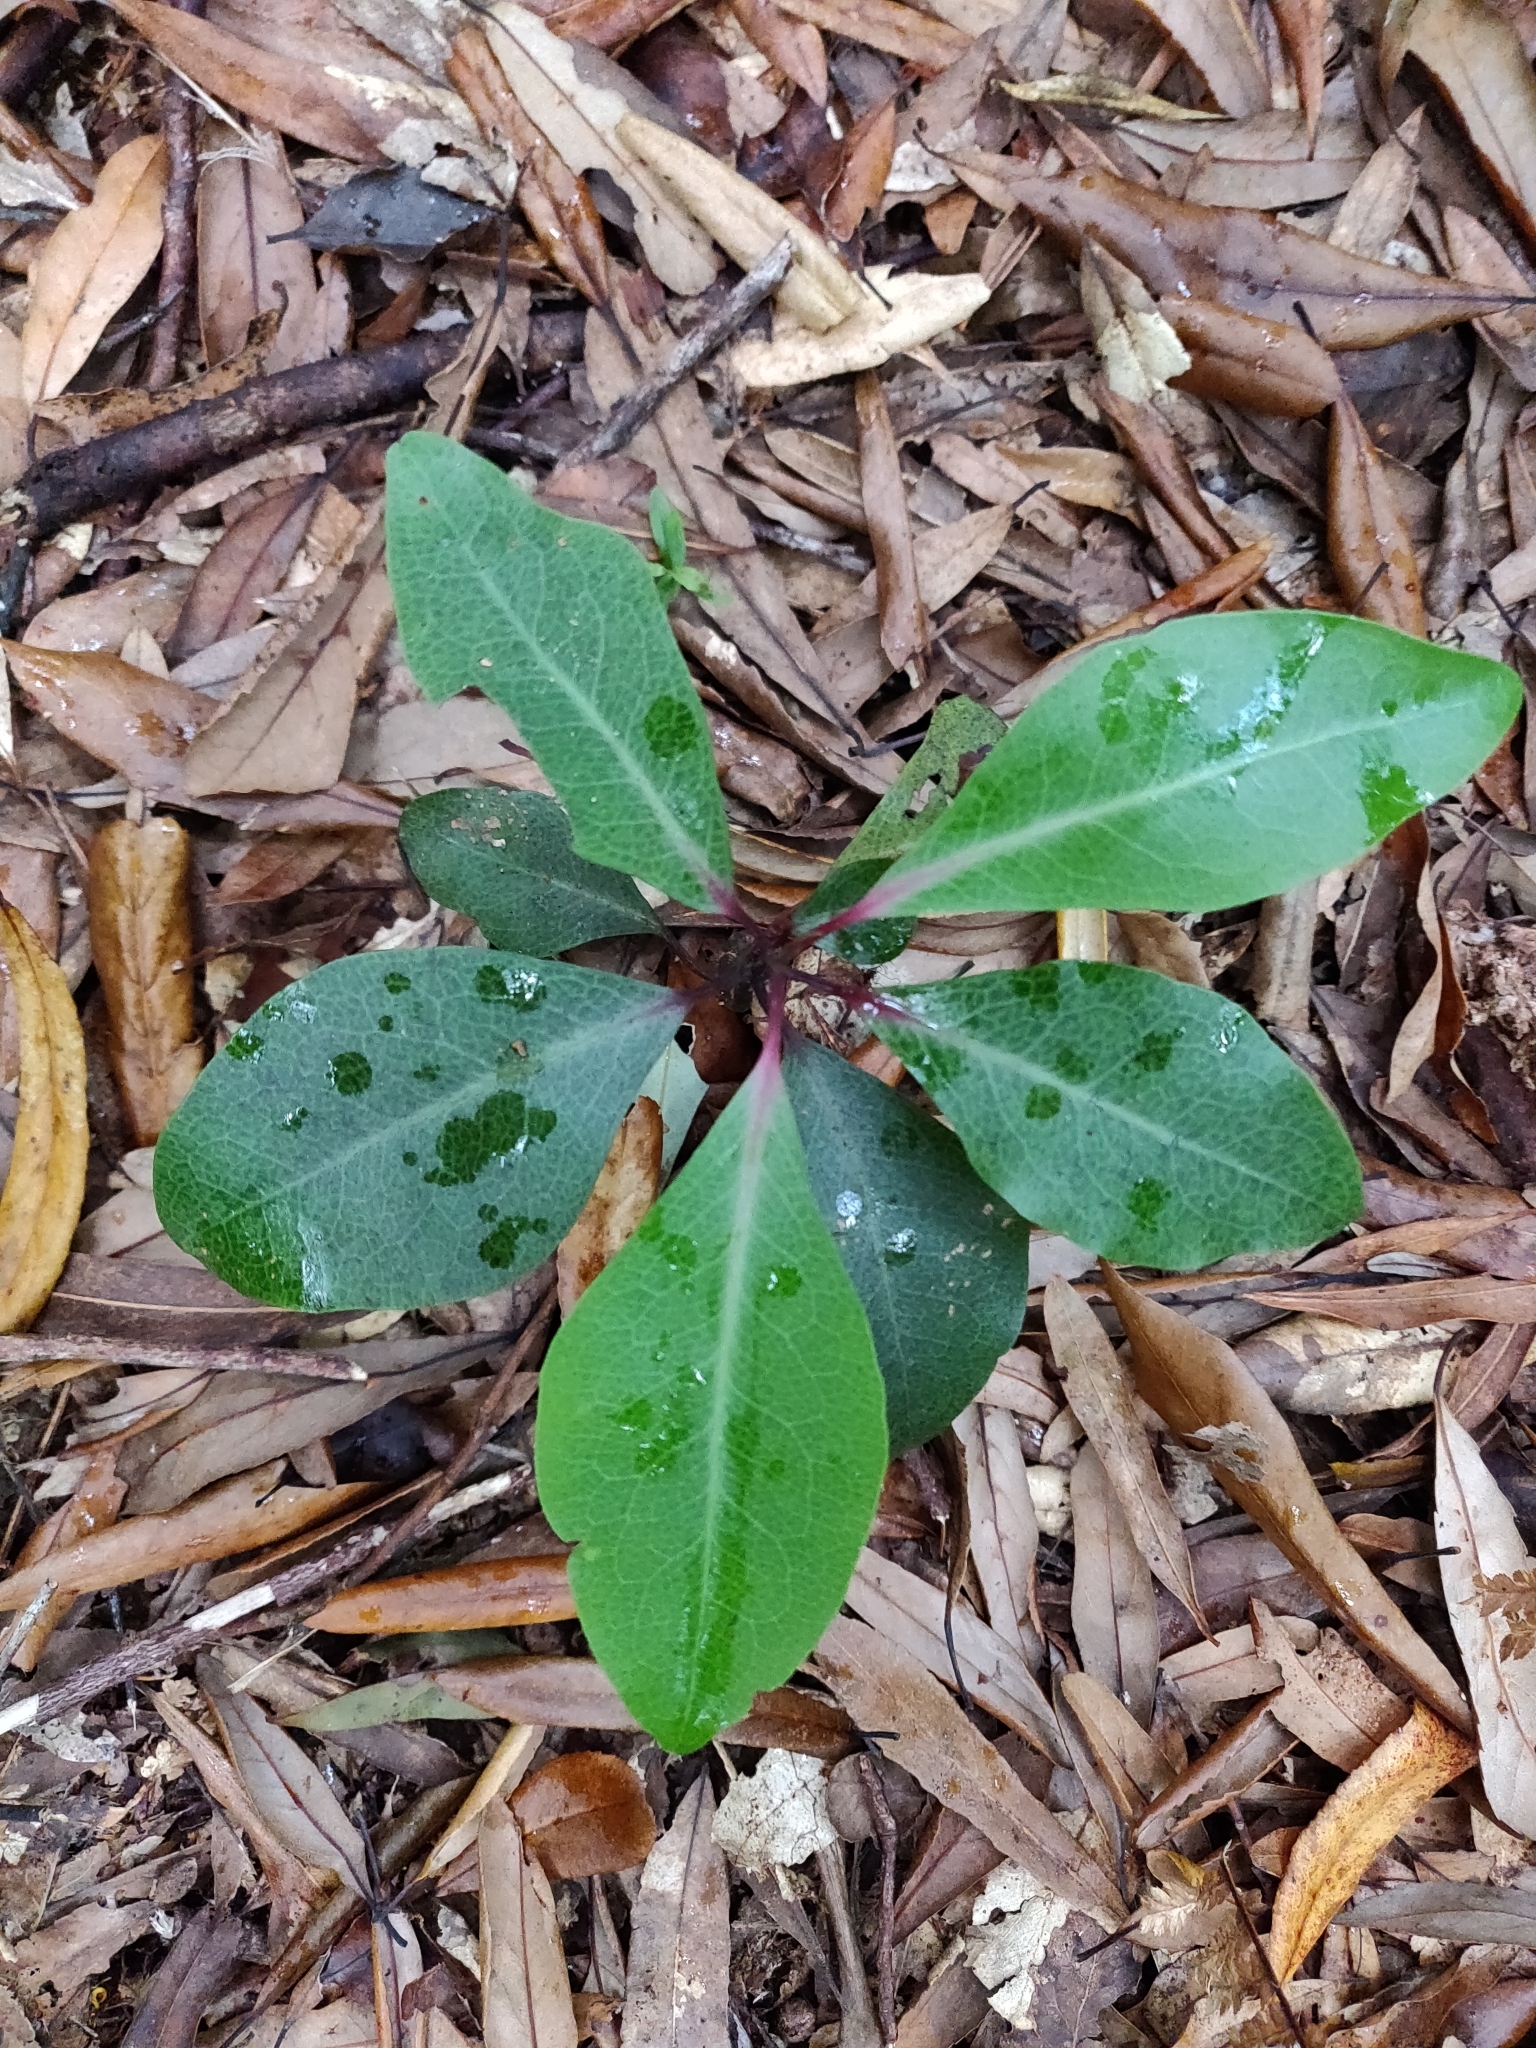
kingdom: Plantae
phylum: Tracheophyta
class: Magnoliopsida
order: Canellales
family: Winteraceae
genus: Pseudowintera
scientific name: Pseudowintera axillaris
